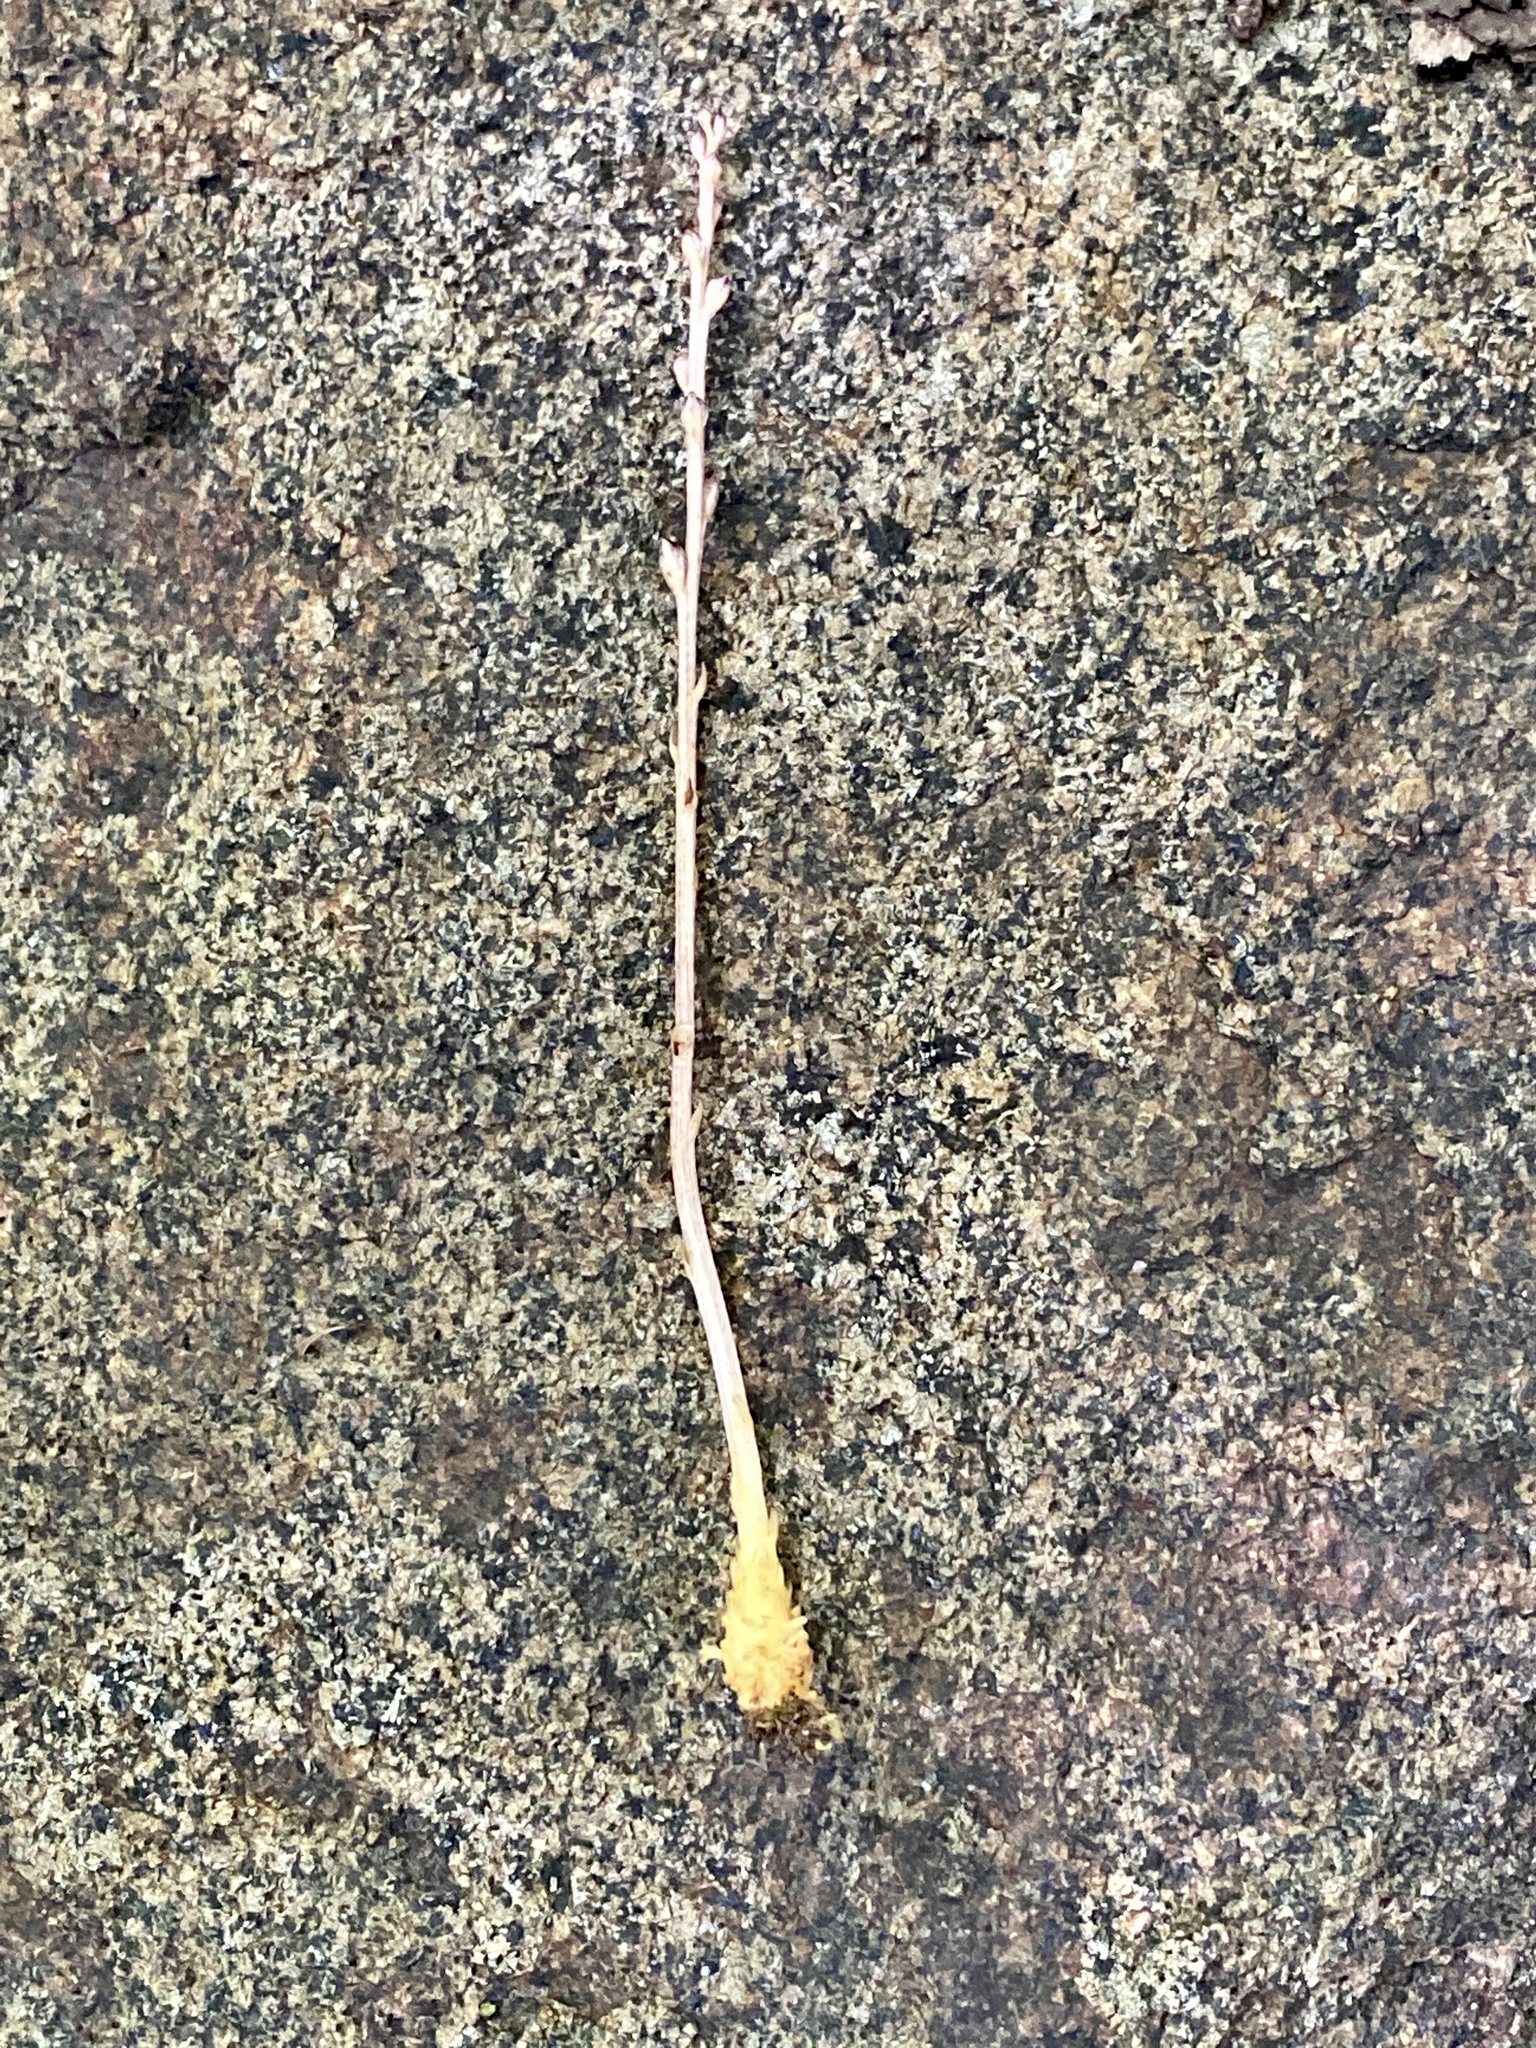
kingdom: Plantae
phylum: Tracheophyta
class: Magnoliopsida
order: Lamiales
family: Orobanchaceae
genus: Epifagus
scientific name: Epifagus virginiana
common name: Beechdrops
